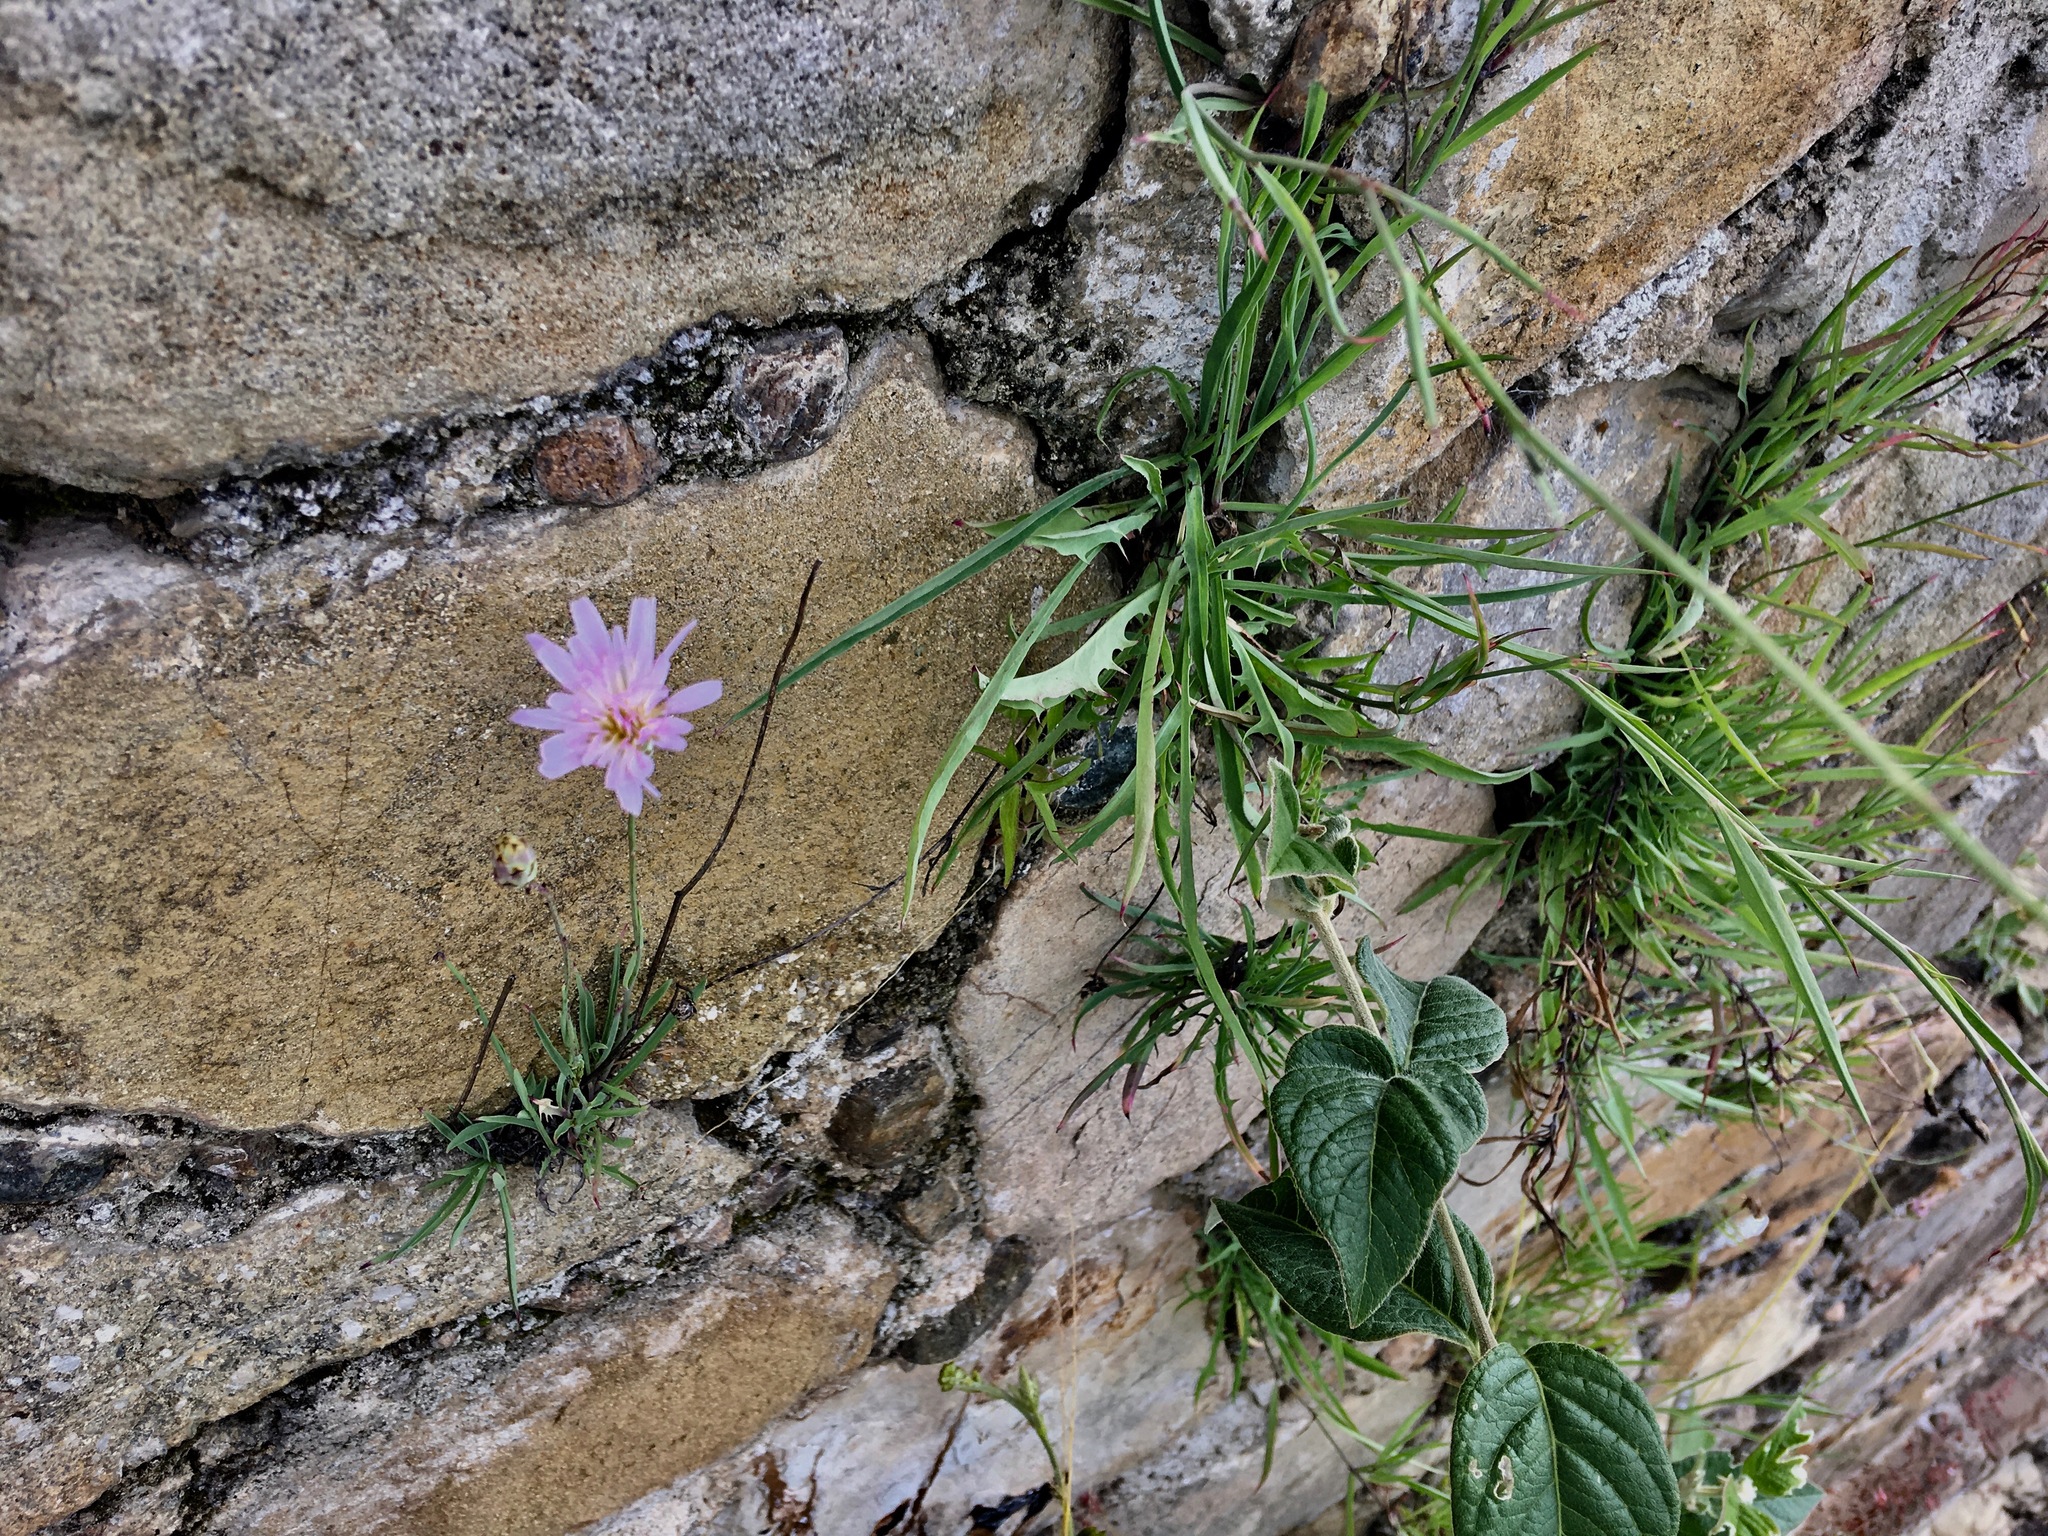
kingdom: Plantae
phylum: Tracheophyta
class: Magnoliopsida
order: Asterales
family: Asteraceae
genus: Pinaropappus
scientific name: Pinaropappus roseus
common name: Rock-lettuce
